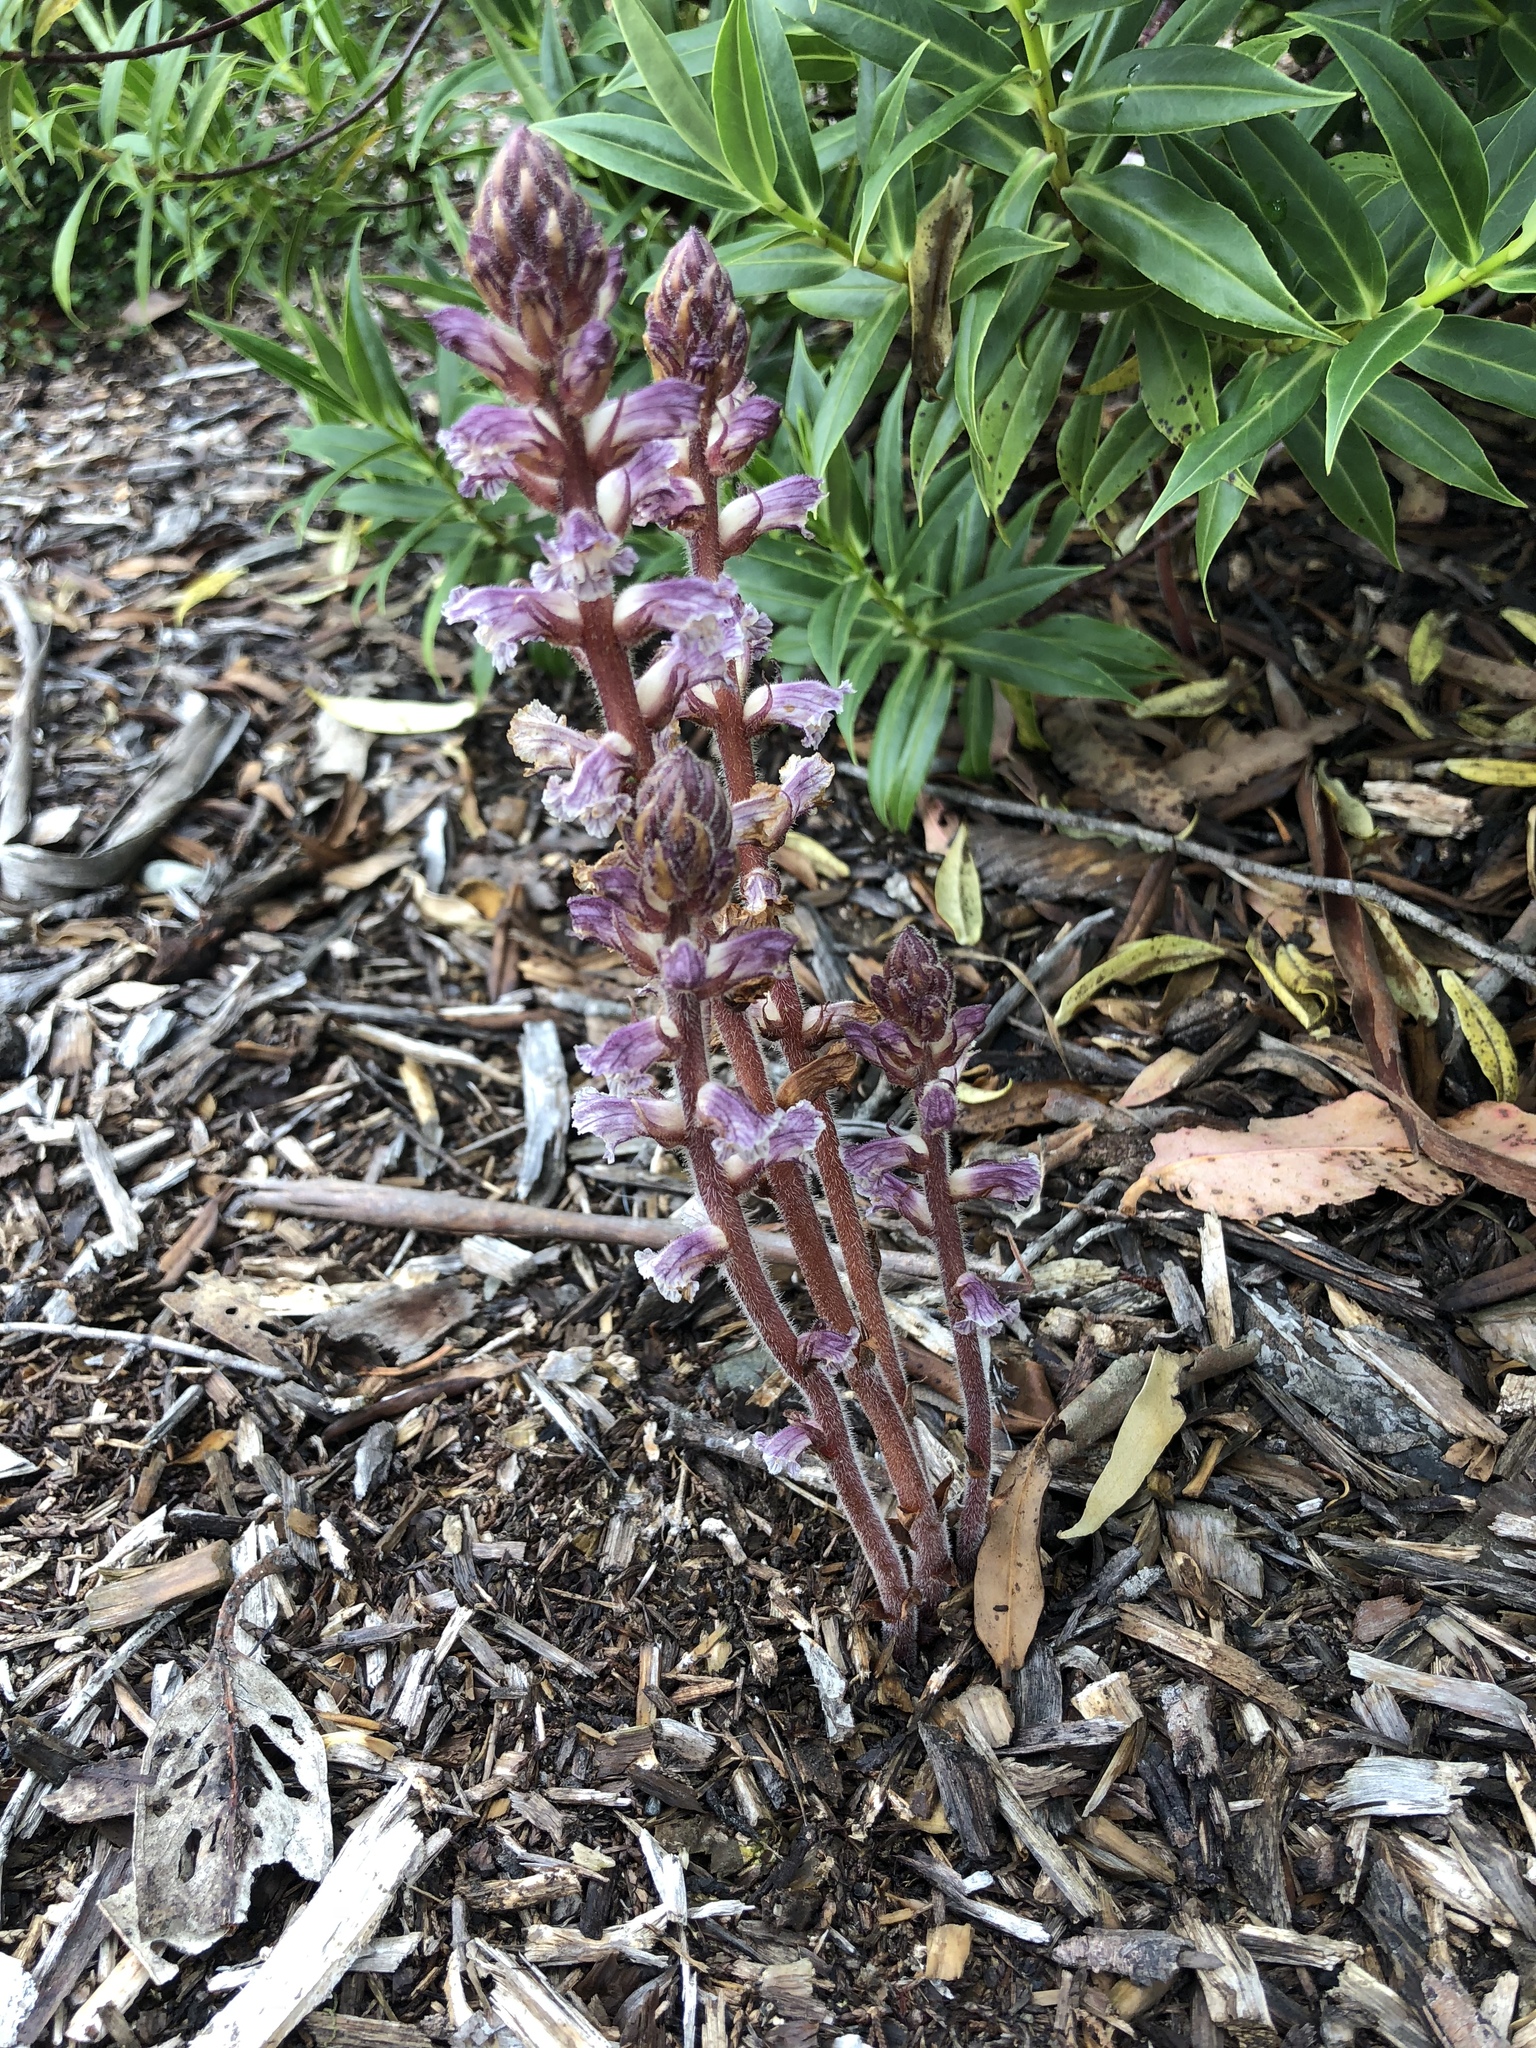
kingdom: Plantae
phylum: Tracheophyta
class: Magnoliopsida
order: Lamiales
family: Orobanchaceae
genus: Orobanche
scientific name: Orobanche minor
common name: Common broomrape
